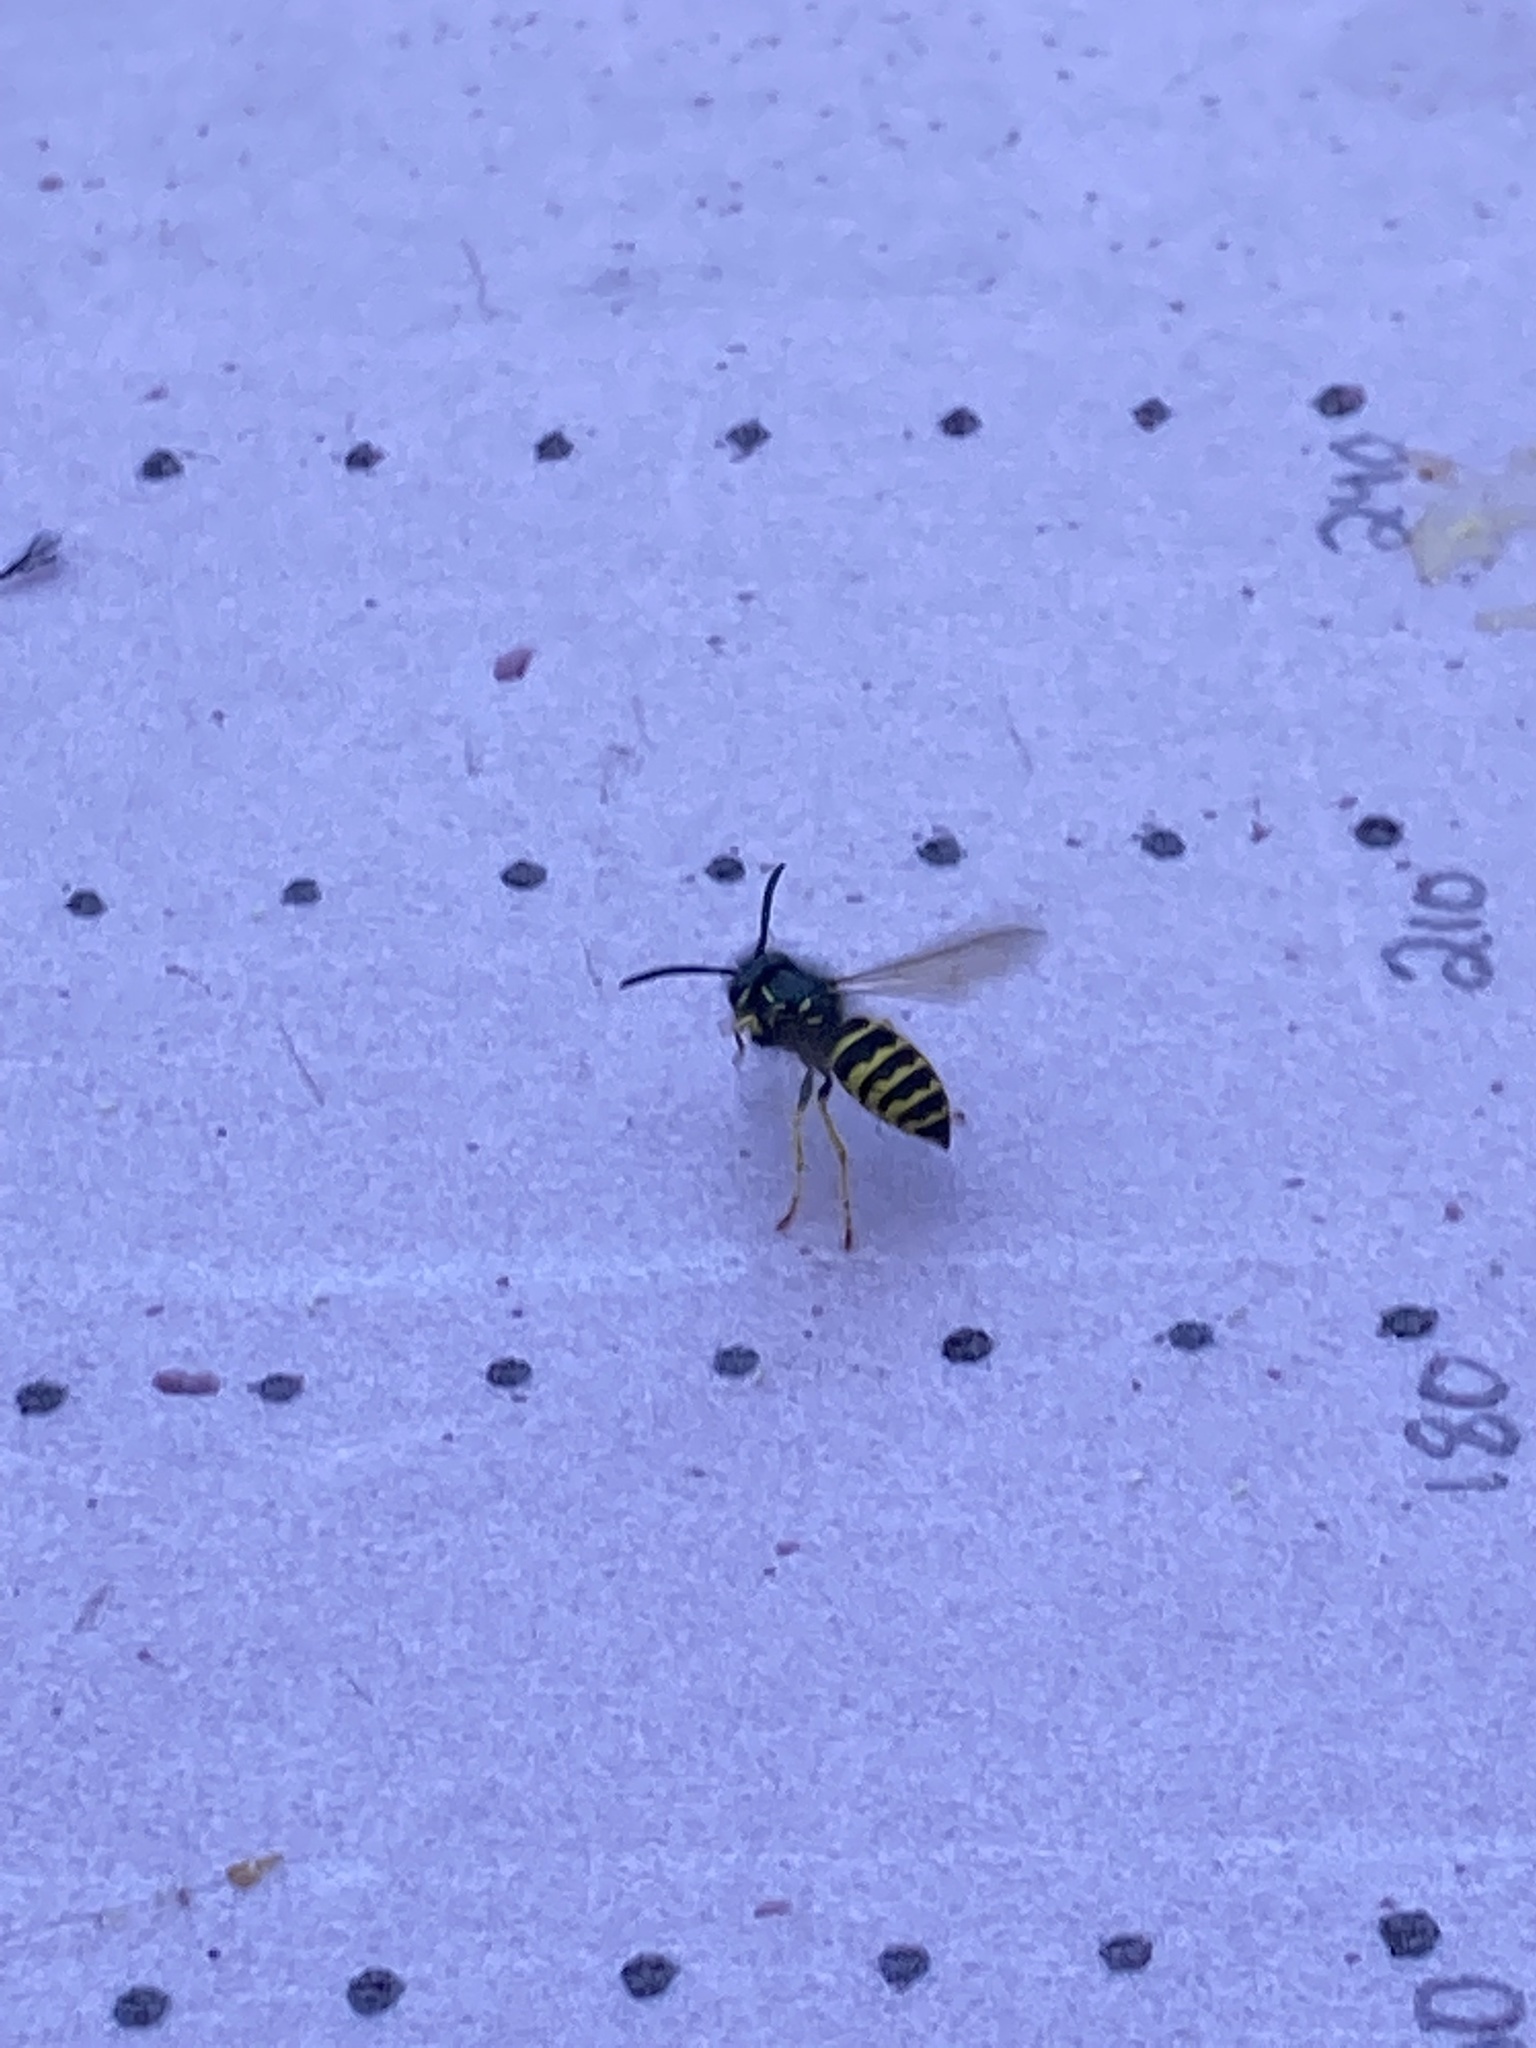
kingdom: Animalia
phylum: Arthropoda
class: Insecta
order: Hymenoptera
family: Vespidae
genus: Vespula
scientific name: Vespula alascensis
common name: Alaska yellowjacket
